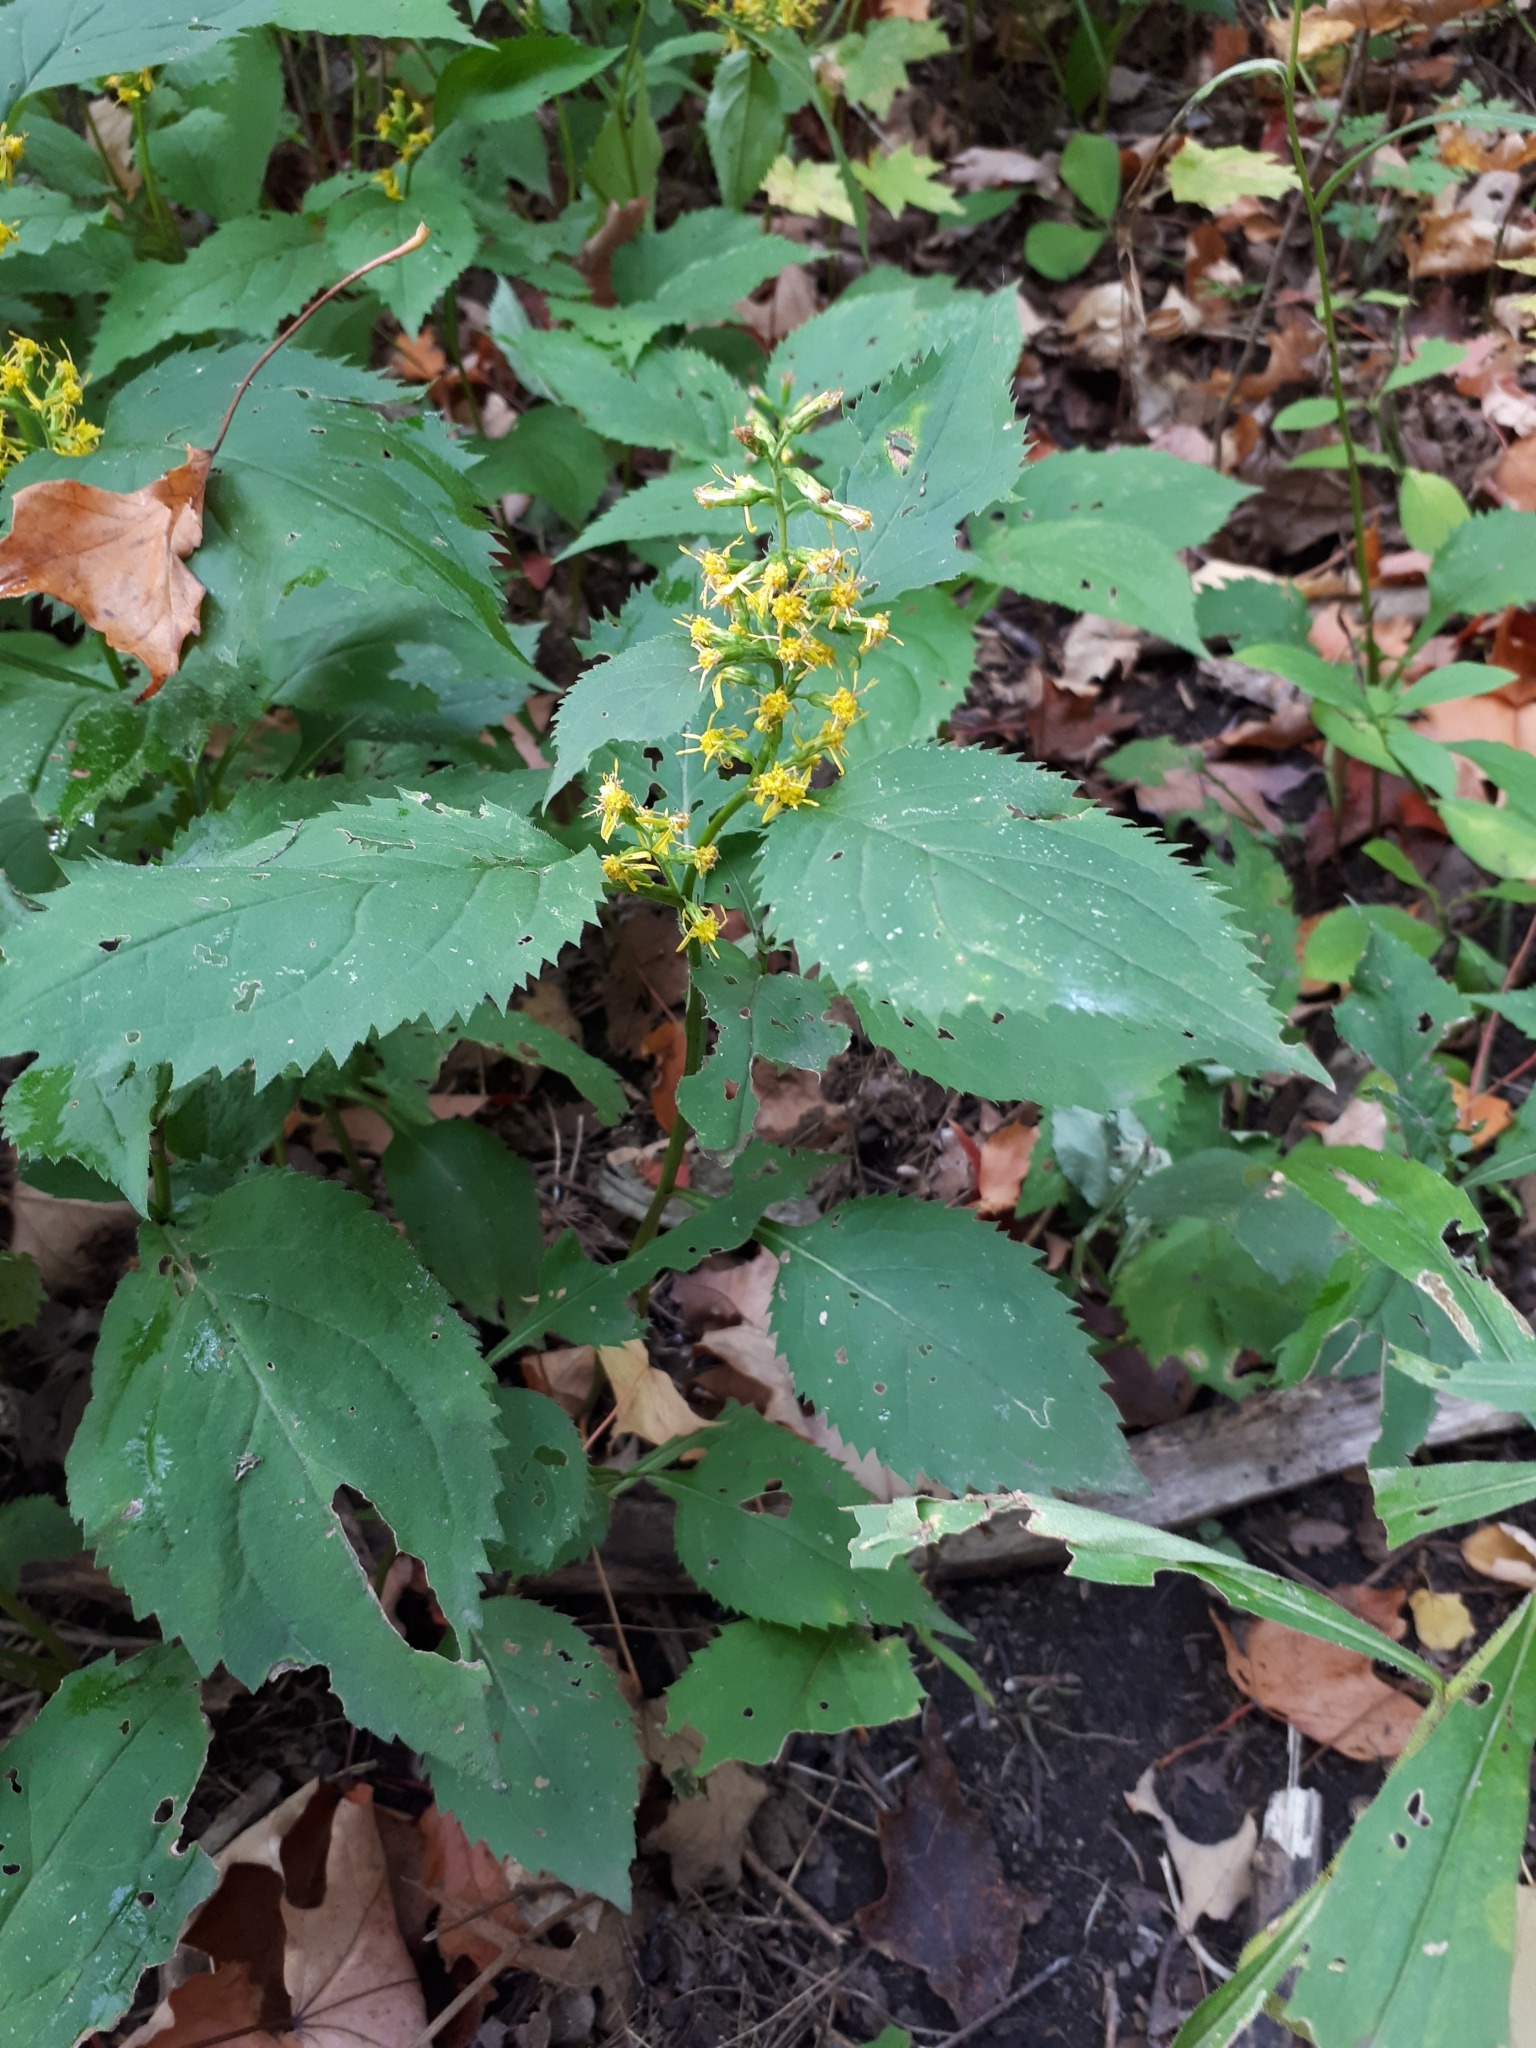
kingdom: Plantae
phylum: Tracheophyta
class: Magnoliopsida
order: Asterales
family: Asteraceae
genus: Solidago
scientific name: Solidago flexicaulis
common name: Zig-zag goldenrod
